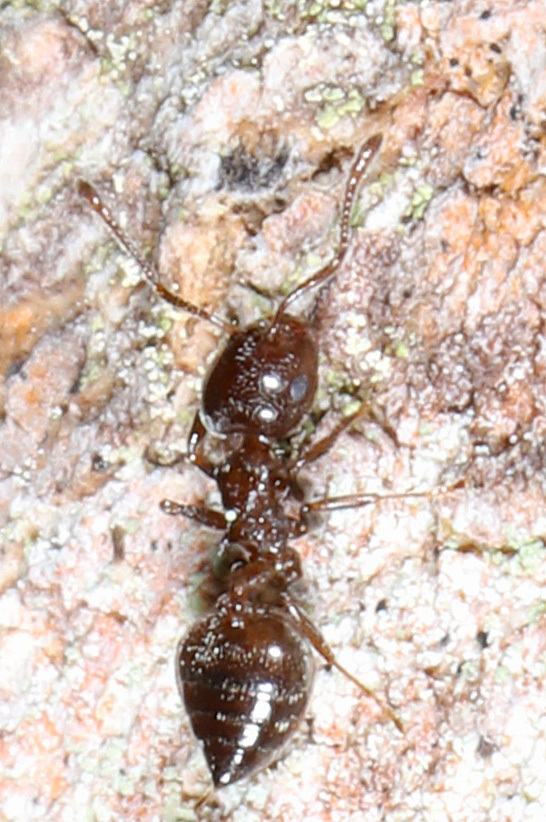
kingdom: Animalia
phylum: Arthropoda
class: Insecta
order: Hymenoptera
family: Formicidae
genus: Crematogaster
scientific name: Crematogaster ashmeadi
